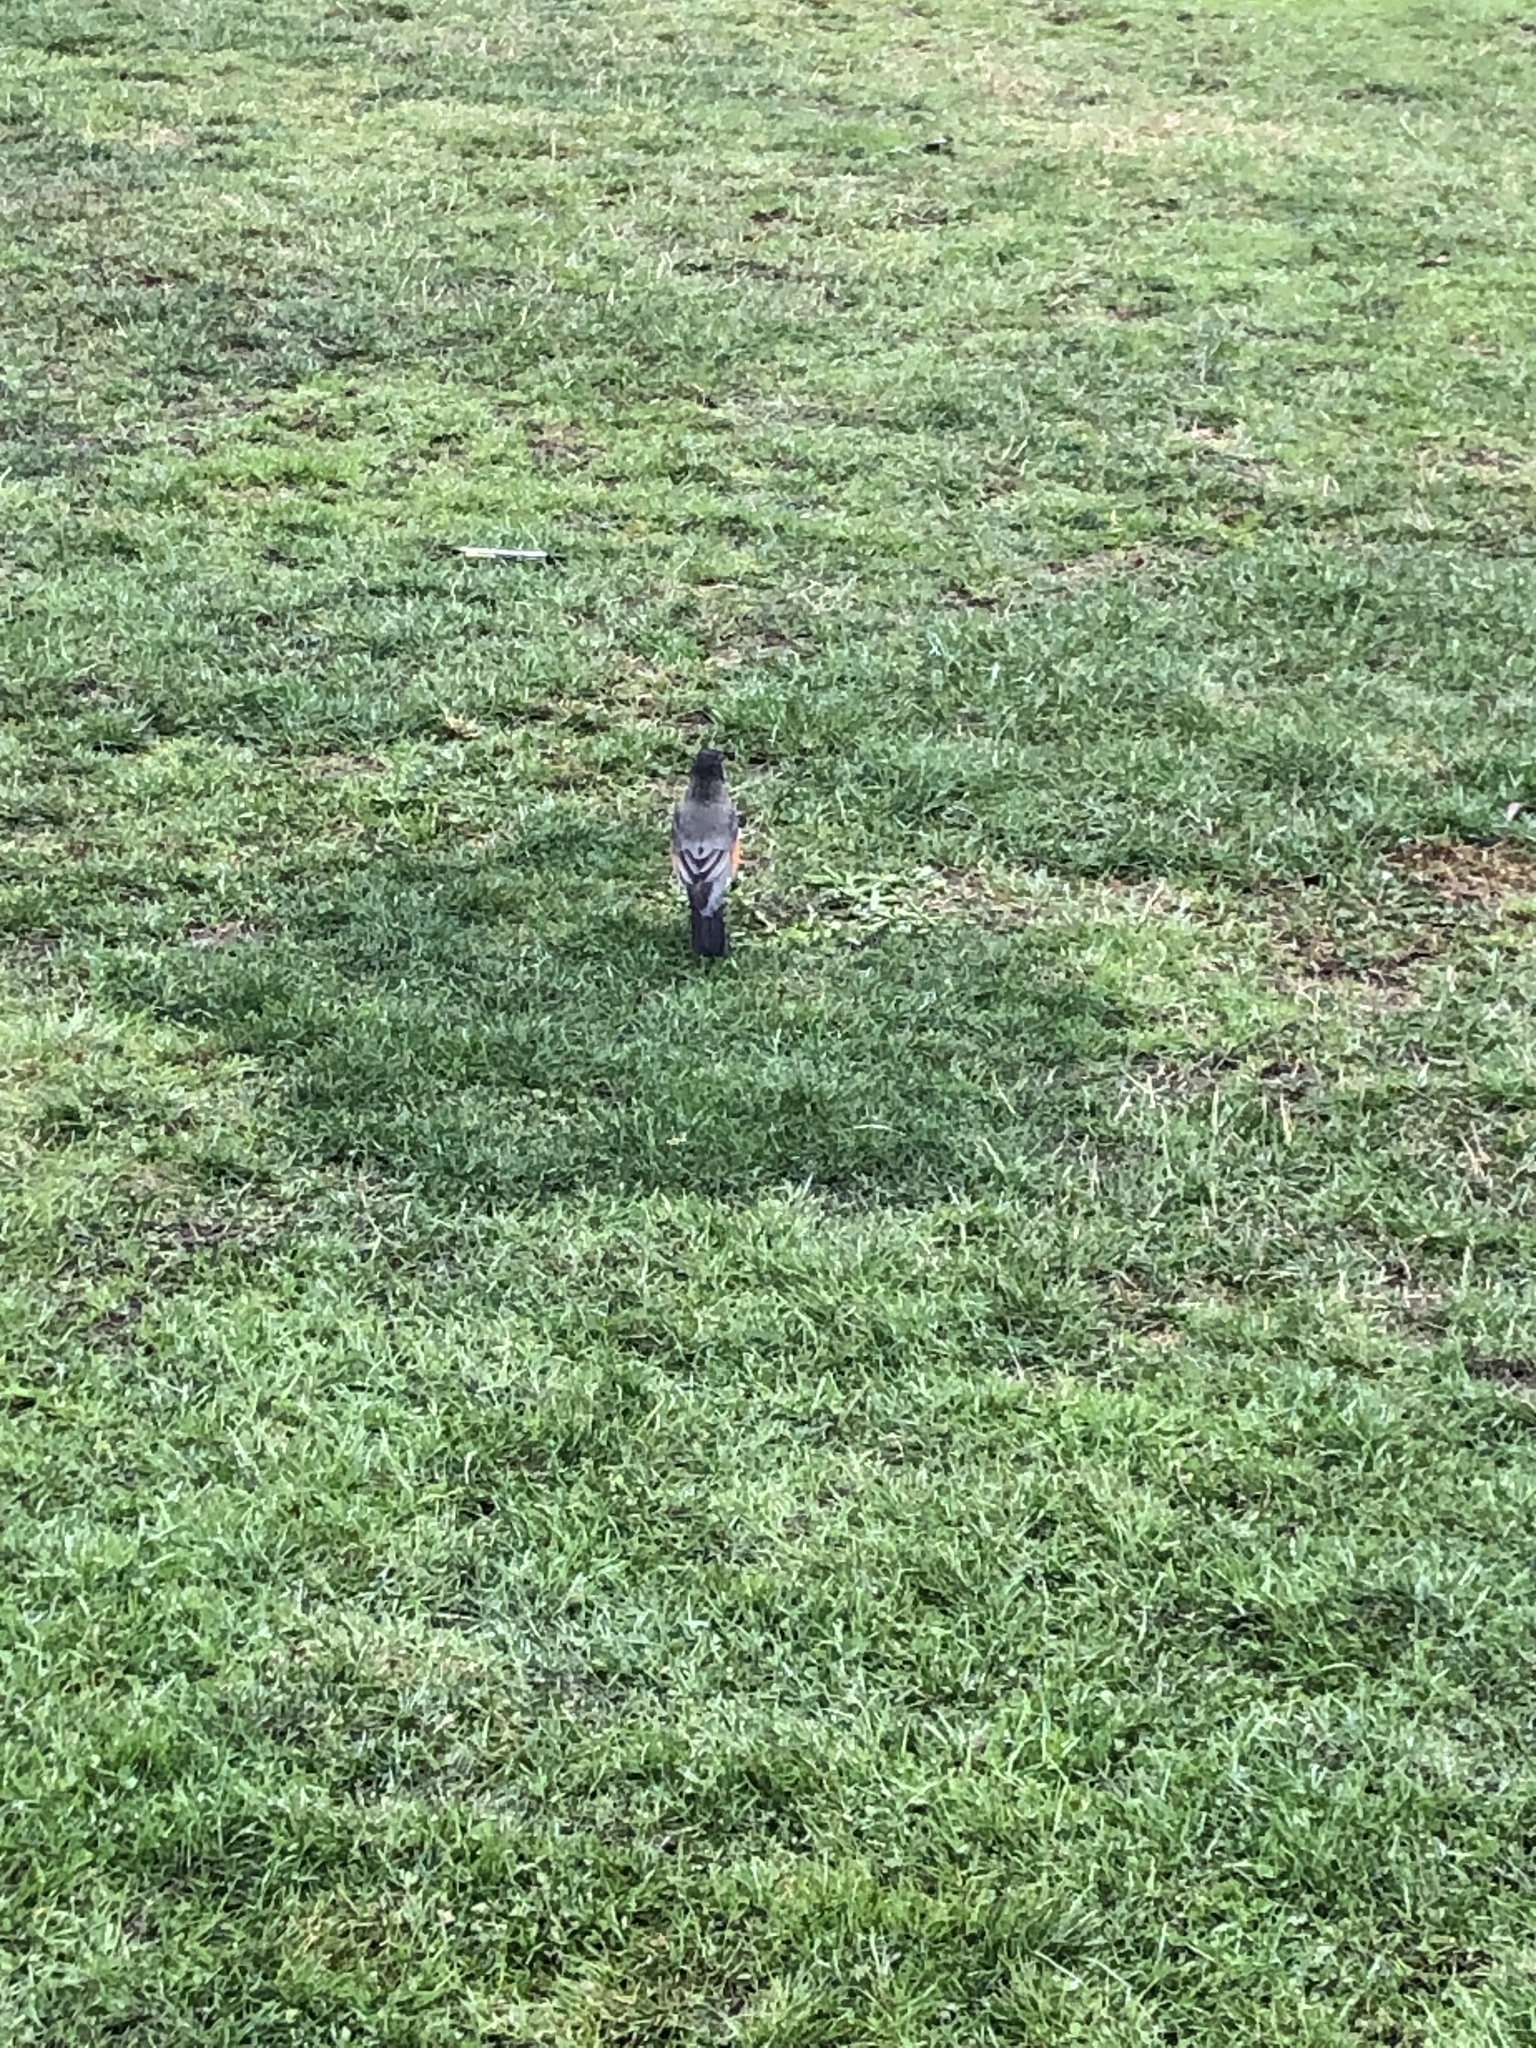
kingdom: Animalia
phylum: Chordata
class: Aves
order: Passeriformes
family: Turdidae
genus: Turdus
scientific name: Turdus migratorius
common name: American robin
